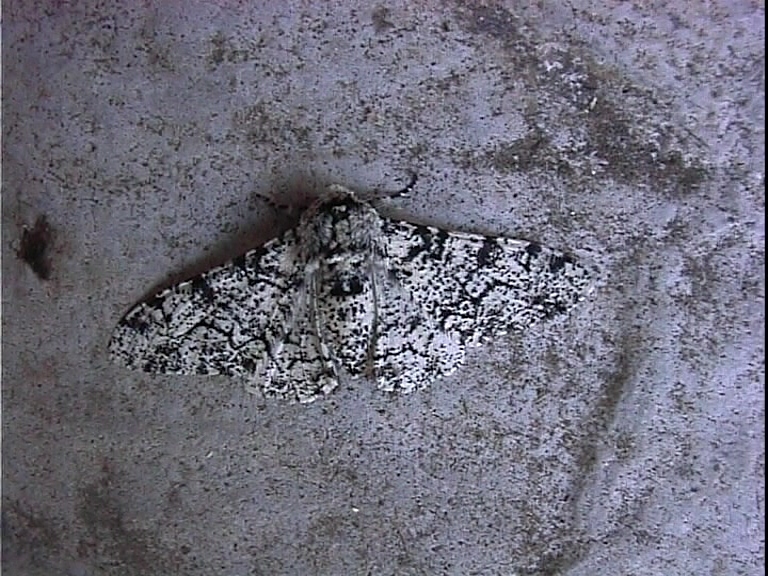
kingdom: Animalia
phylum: Arthropoda
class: Insecta
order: Lepidoptera
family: Geometridae
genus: Biston
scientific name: Biston betularia
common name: Peppered moth
